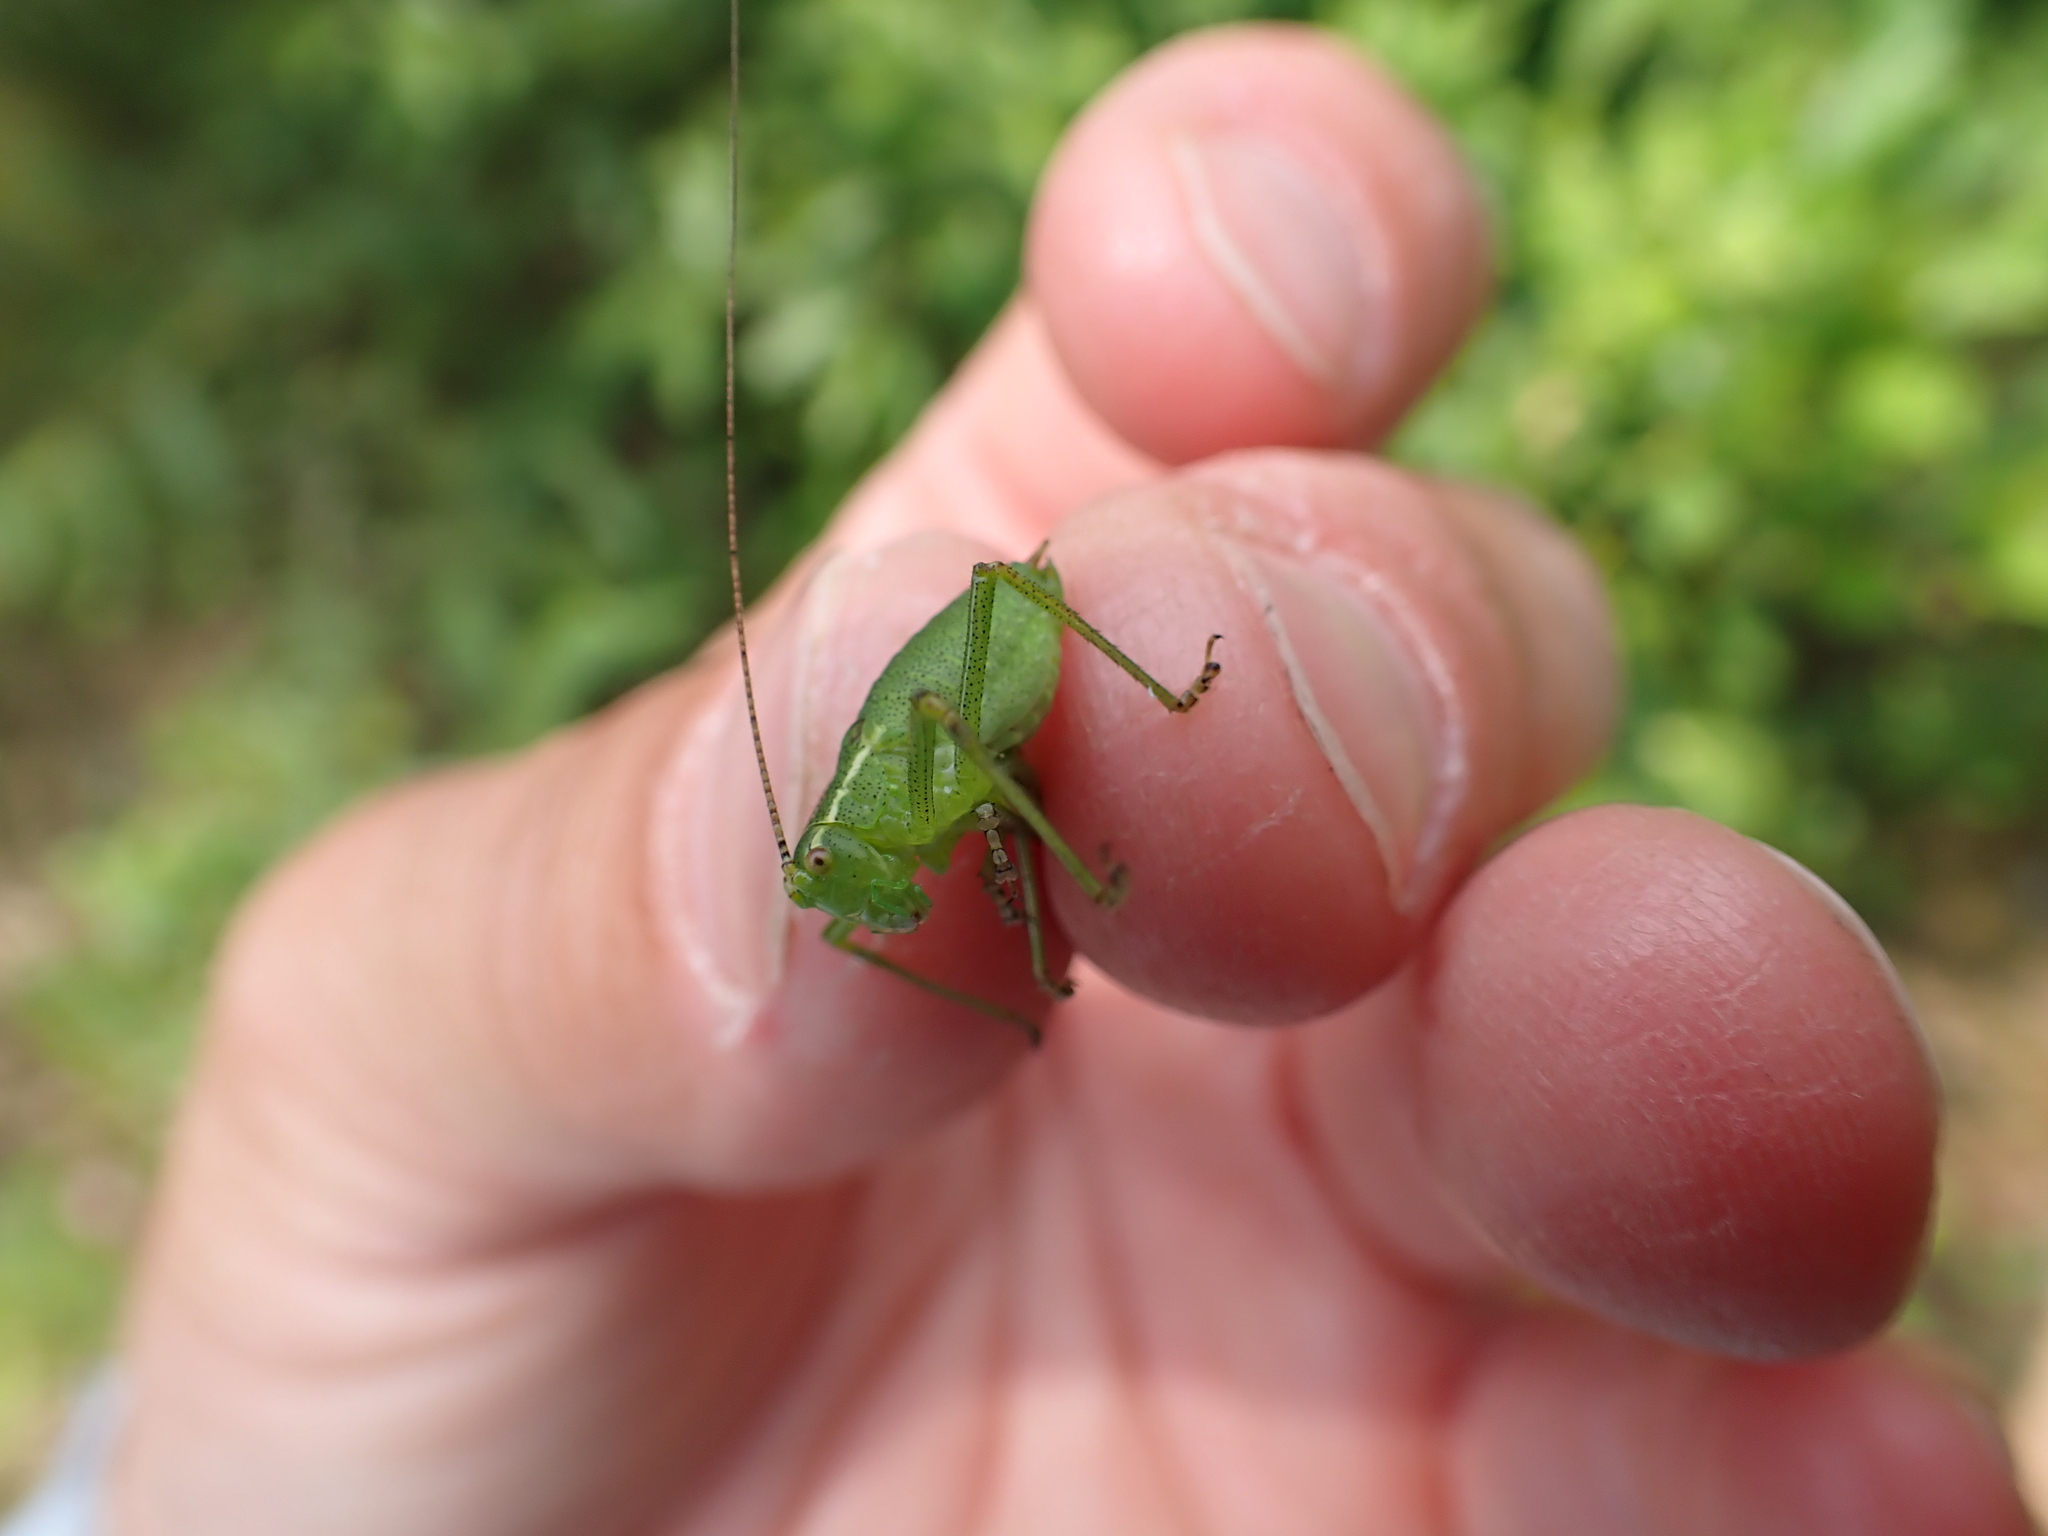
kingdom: Animalia
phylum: Arthropoda
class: Insecta
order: Orthoptera
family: Tettigoniidae
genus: Leptophyes
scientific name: Leptophyes punctatissima
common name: Speckled bush-cricket
